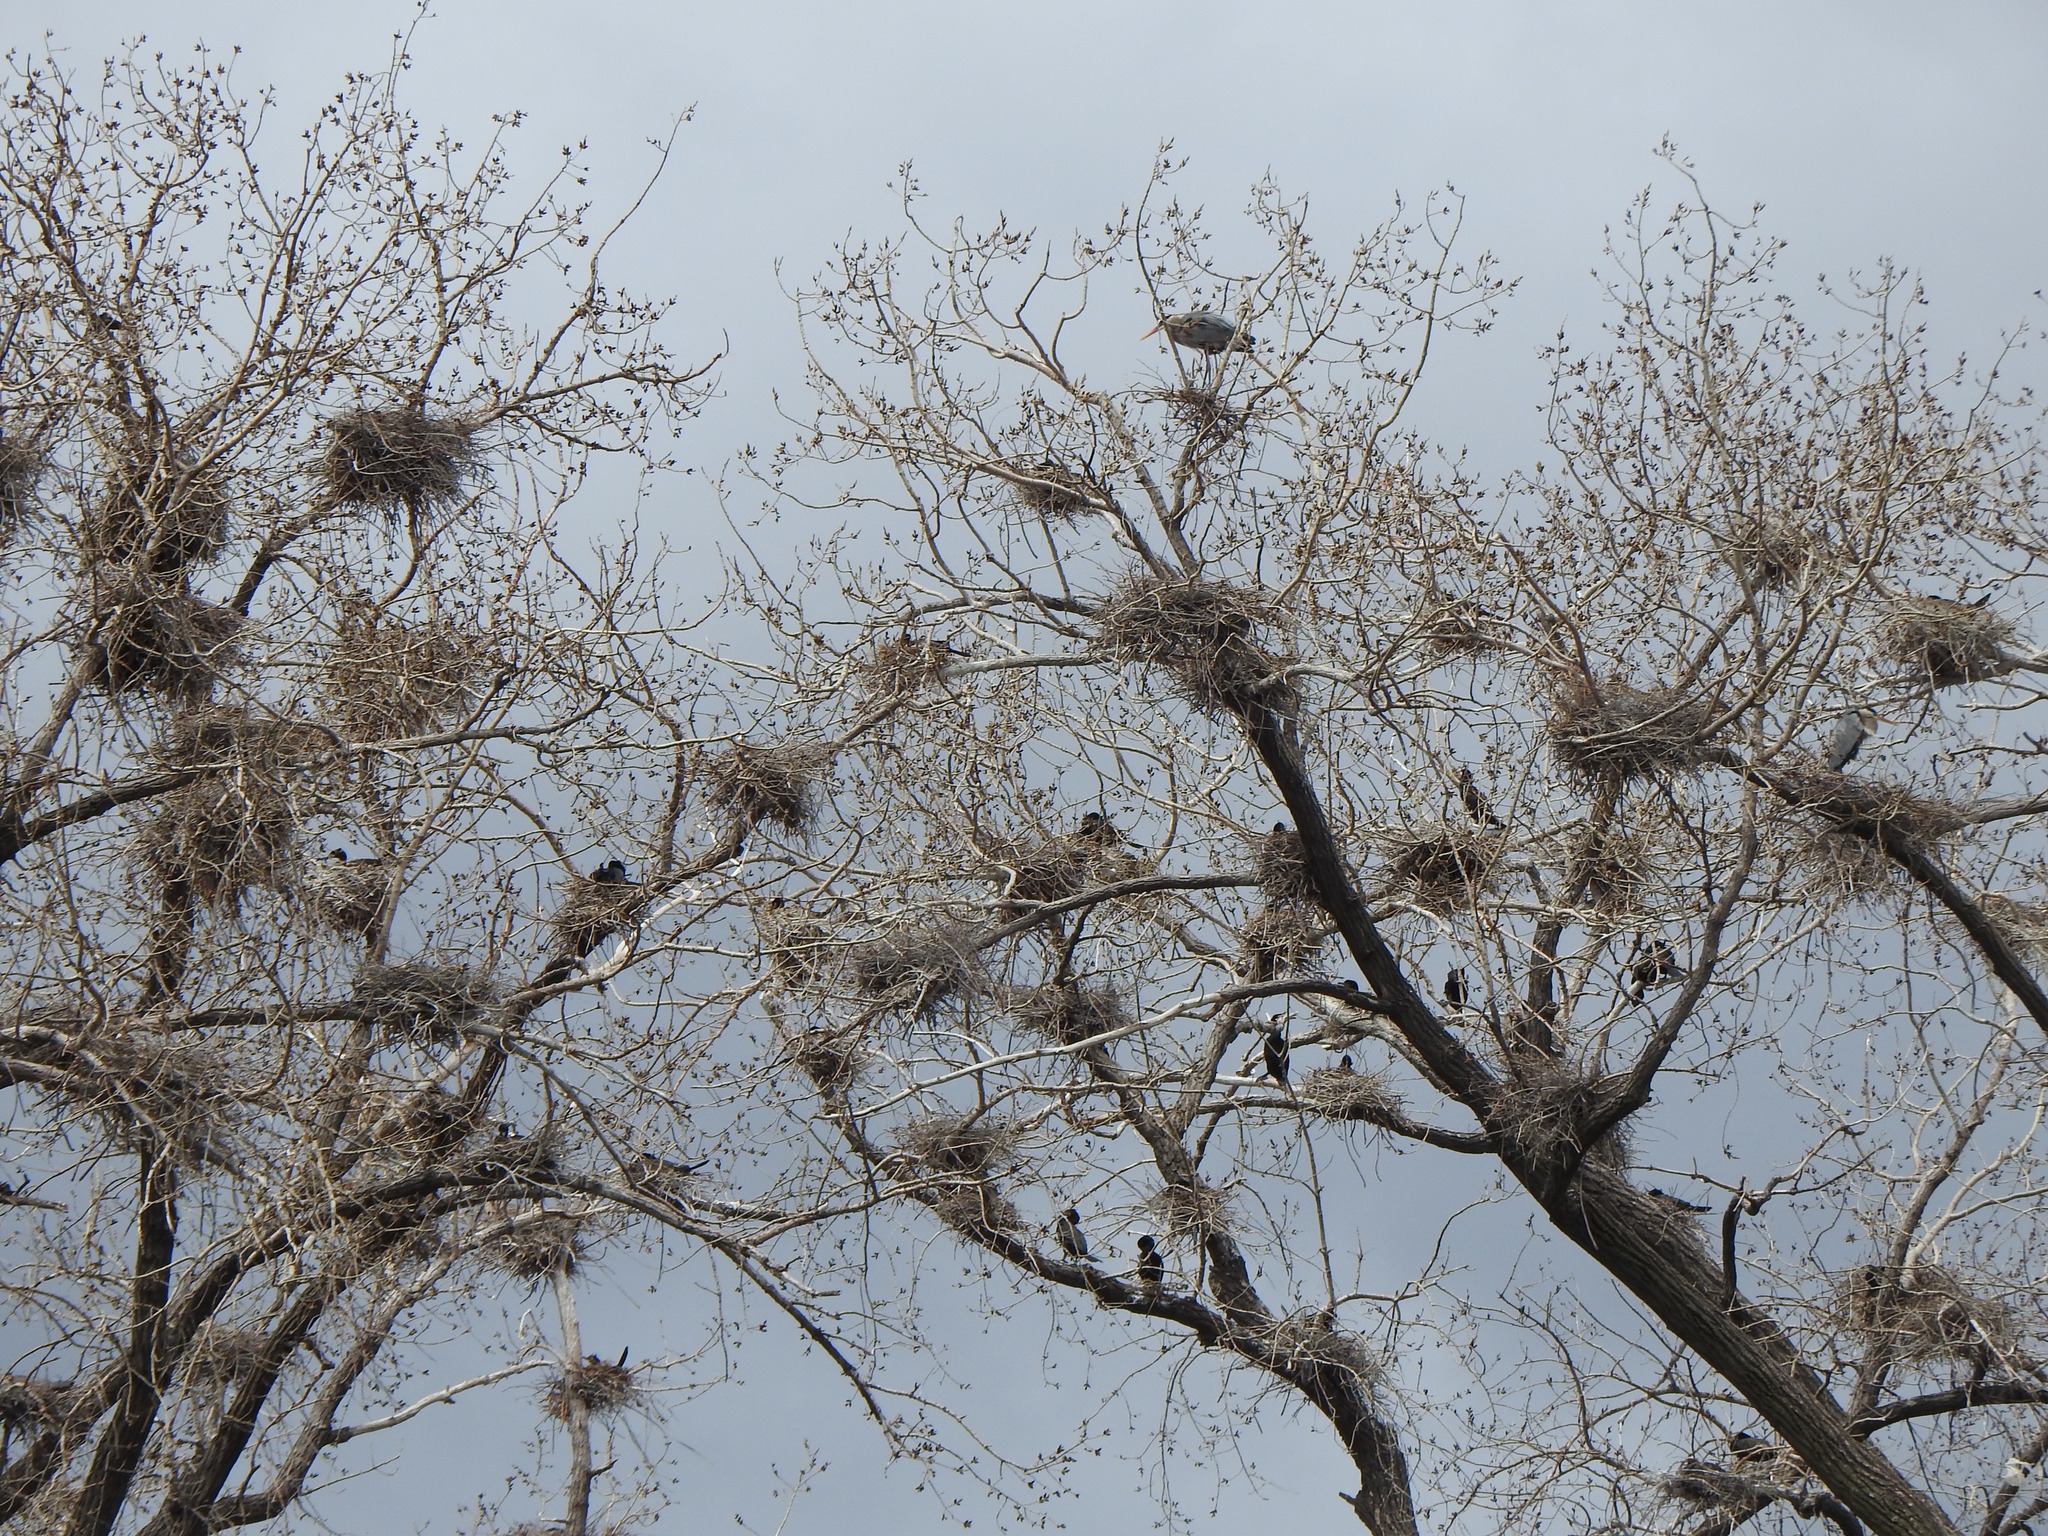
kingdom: Animalia
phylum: Chordata
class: Aves
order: Suliformes
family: Phalacrocoracidae
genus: Phalacrocorax
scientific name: Phalacrocorax auritus
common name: Double-crested cormorant
